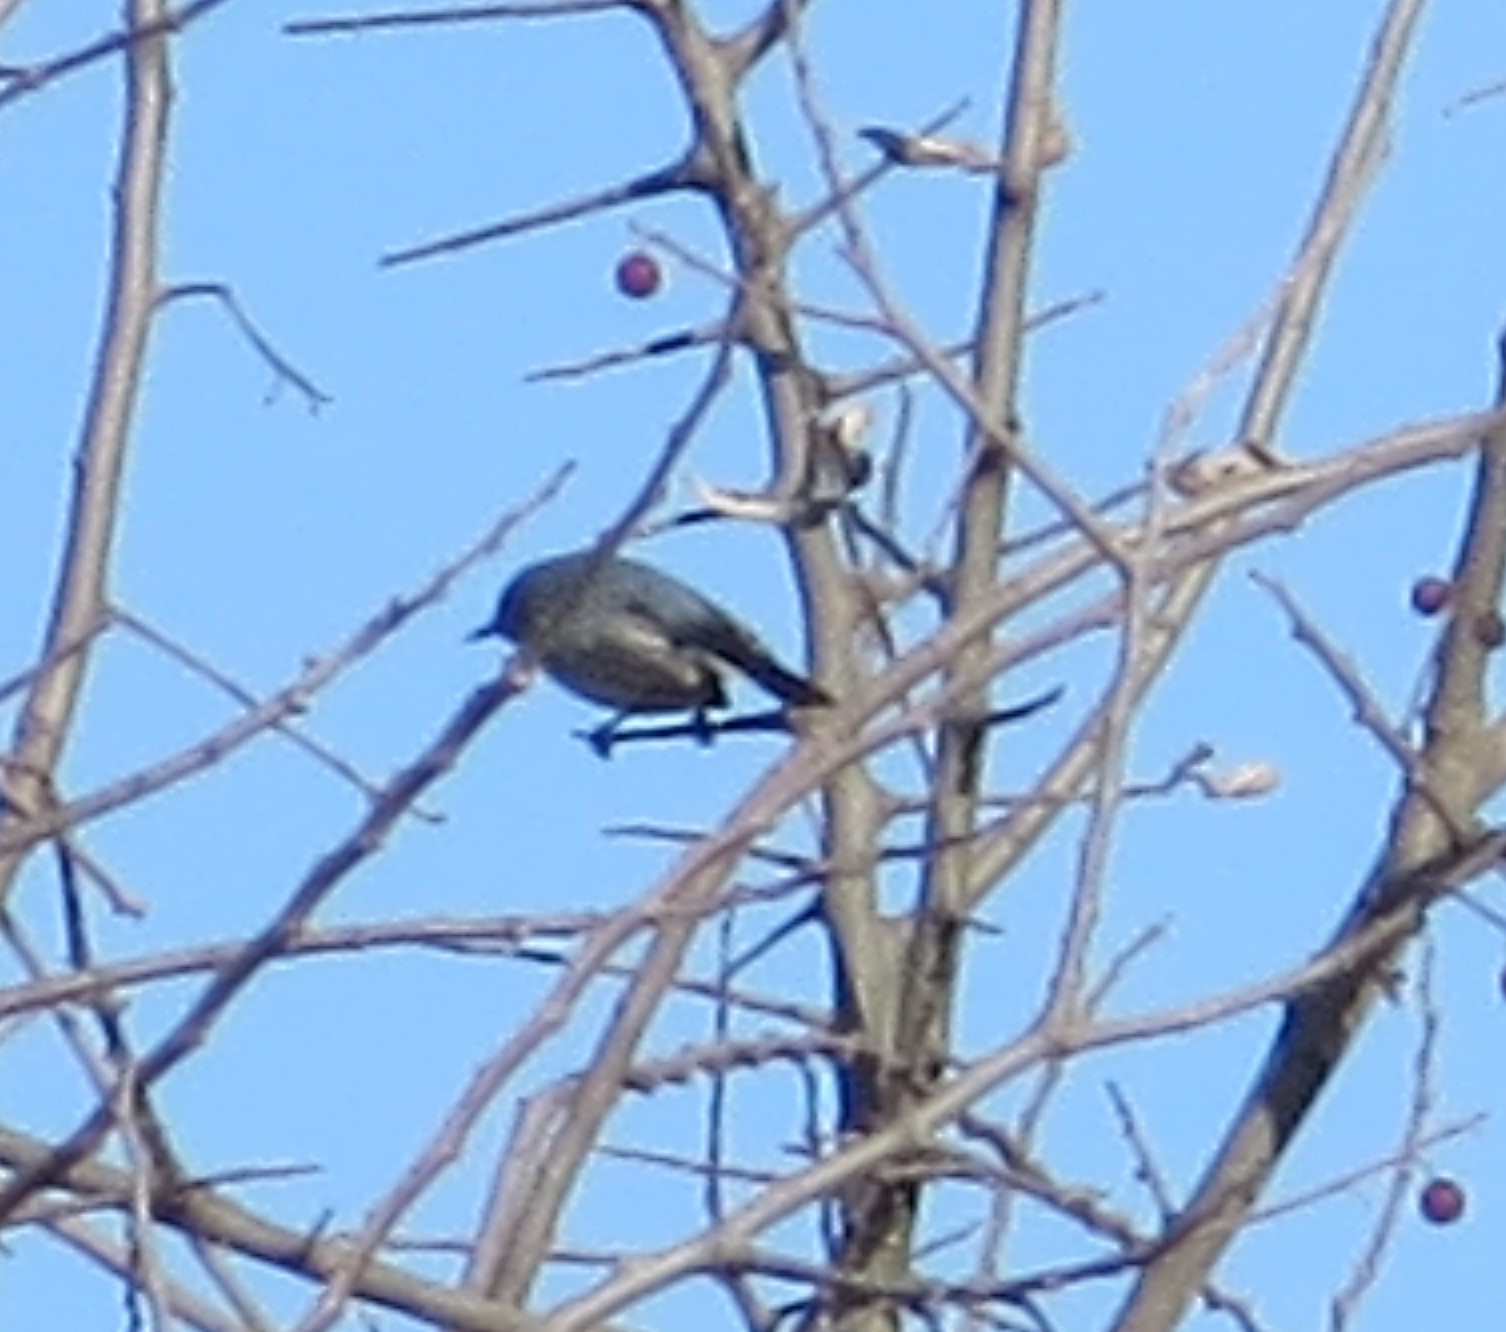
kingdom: Animalia
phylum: Chordata
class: Aves
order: Passeriformes
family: Polioptilidae
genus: Polioptila
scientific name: Polioptila caerulea
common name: Blue-gray gnatcatcher
